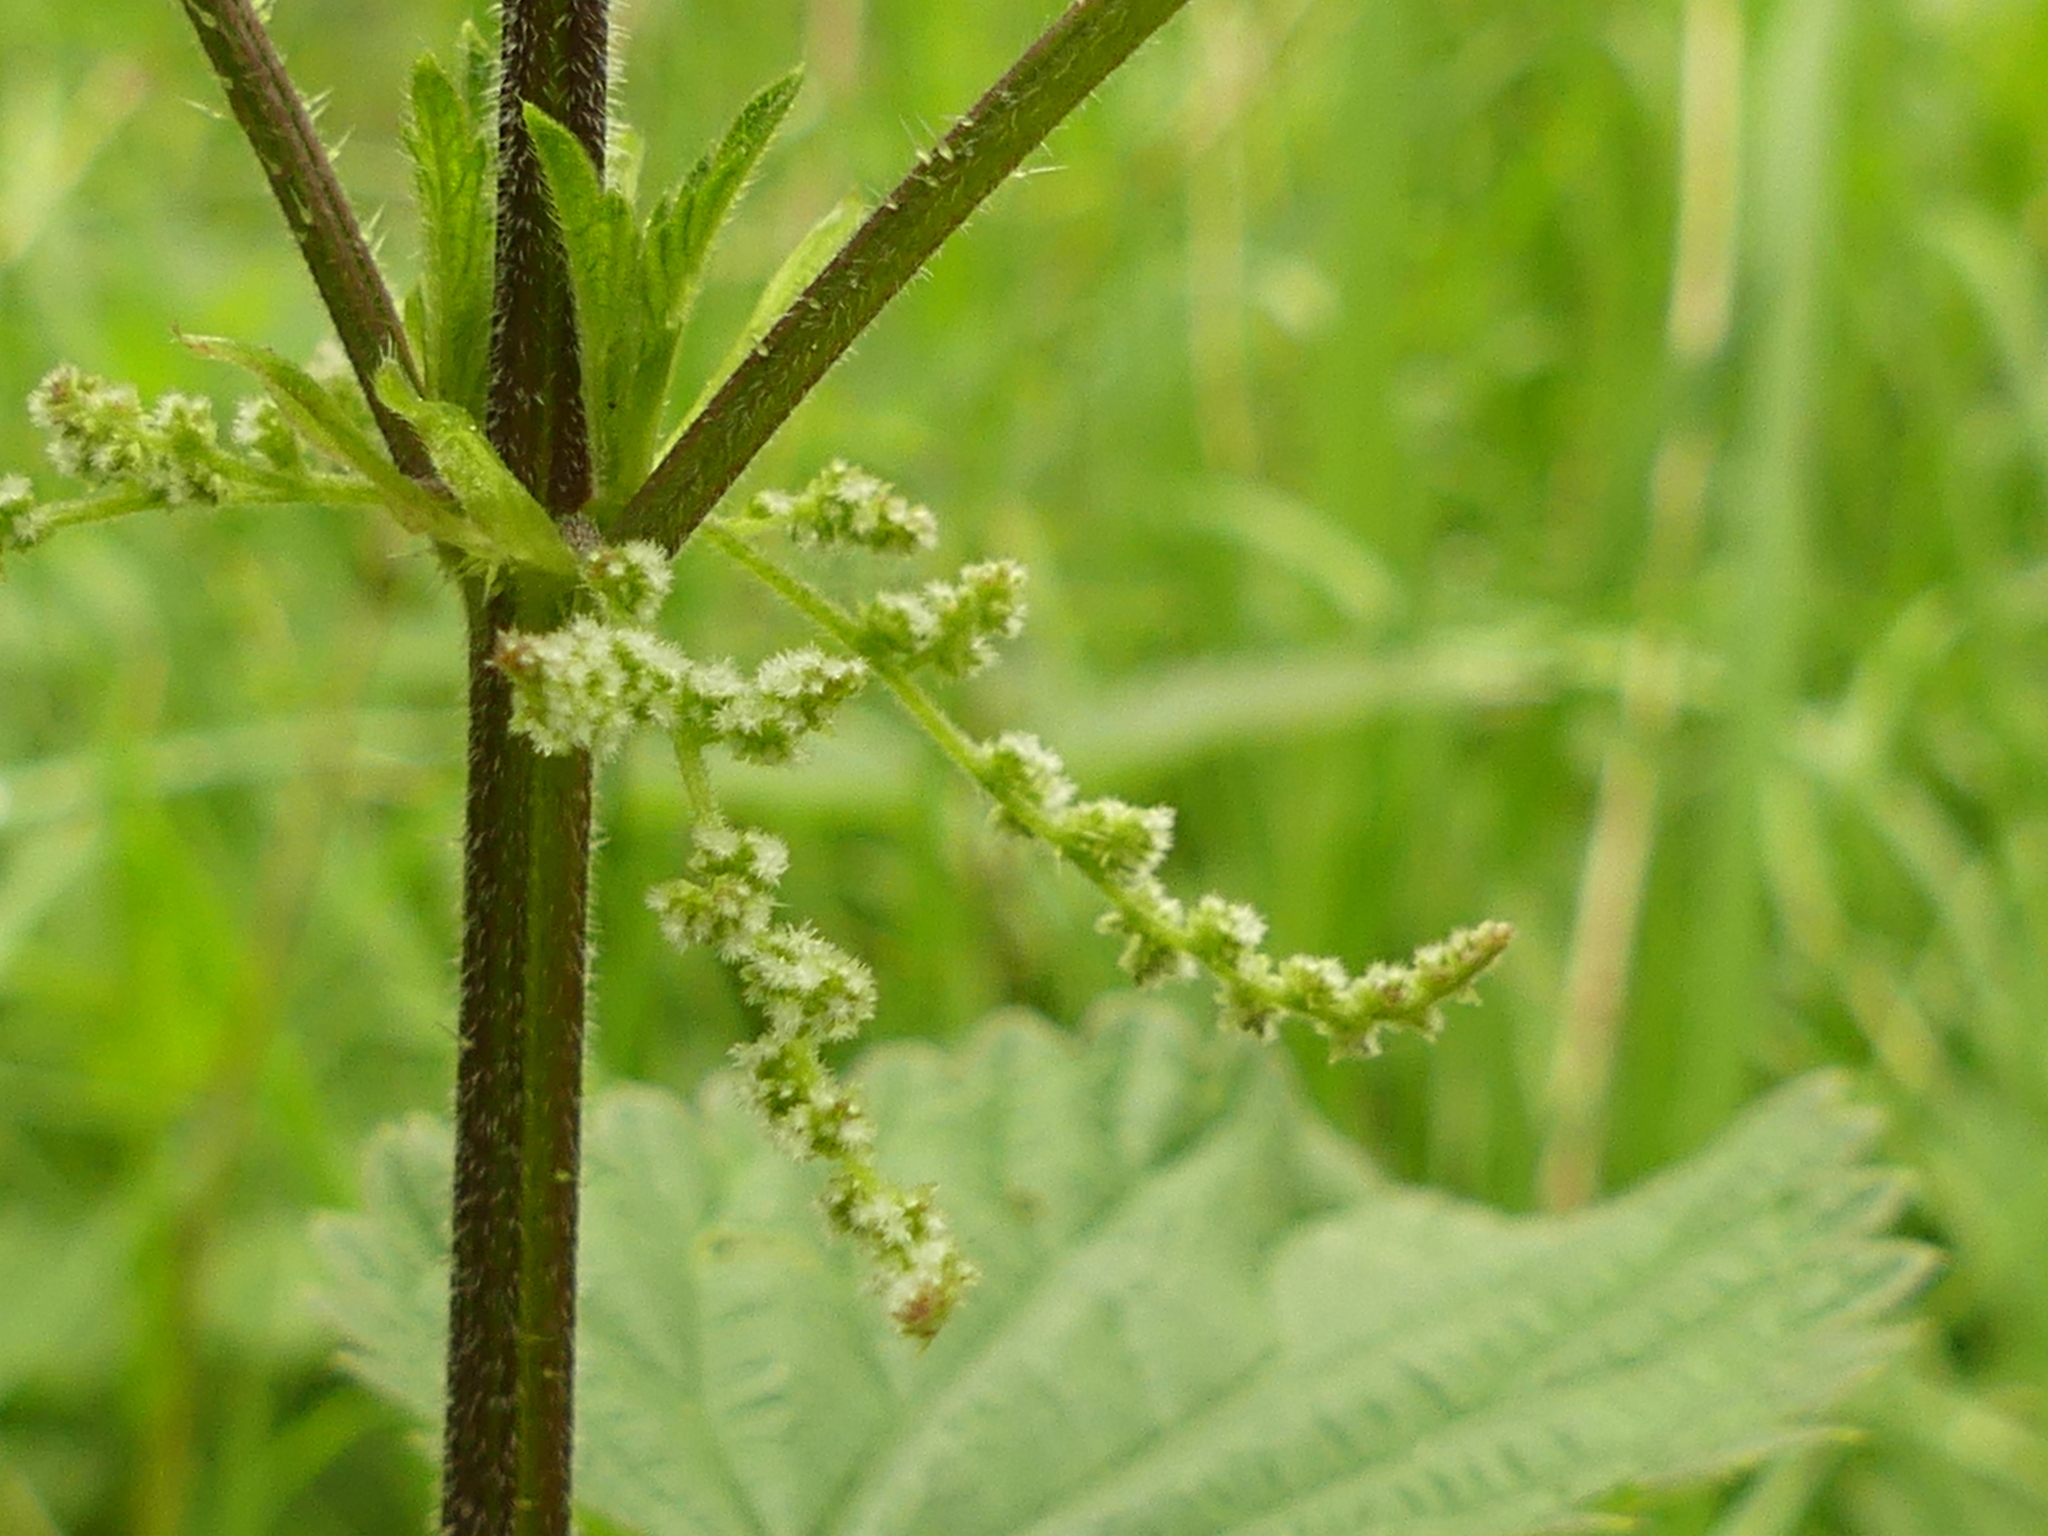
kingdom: Plantae
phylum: Tracheophyta
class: Magnoliopsida
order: Rosales
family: Urticaceae
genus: Urtica
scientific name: Urtica dioica
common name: Common nettle
